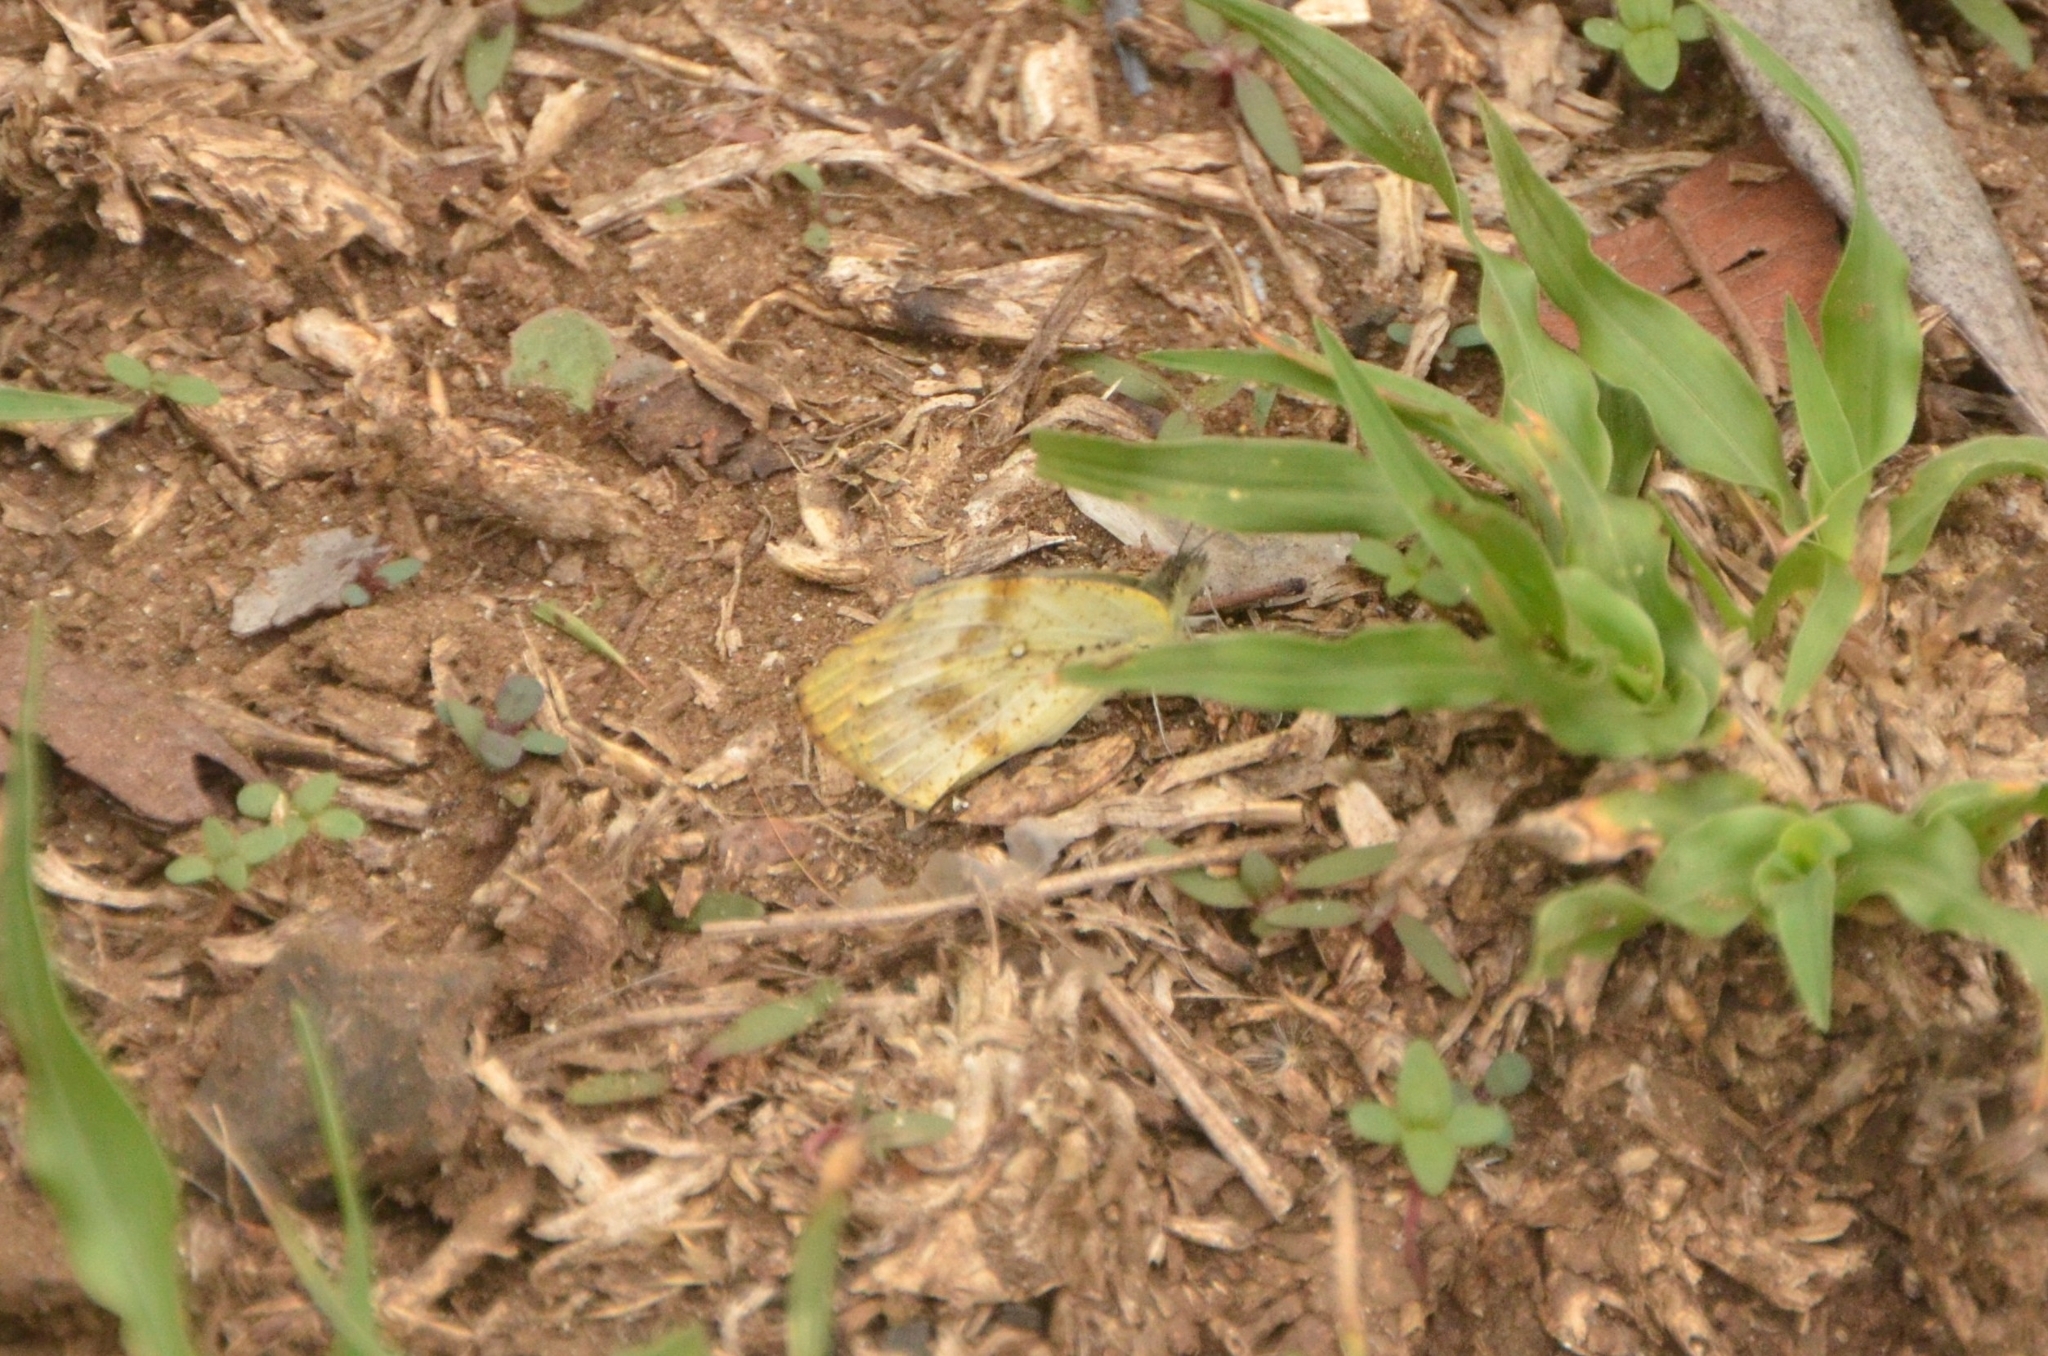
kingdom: Animalia
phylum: Arthropoda
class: Insecta
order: Lepidoptera
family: Pieridae
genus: Colotis
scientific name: Colotis auxo
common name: Sulphur orange tip
